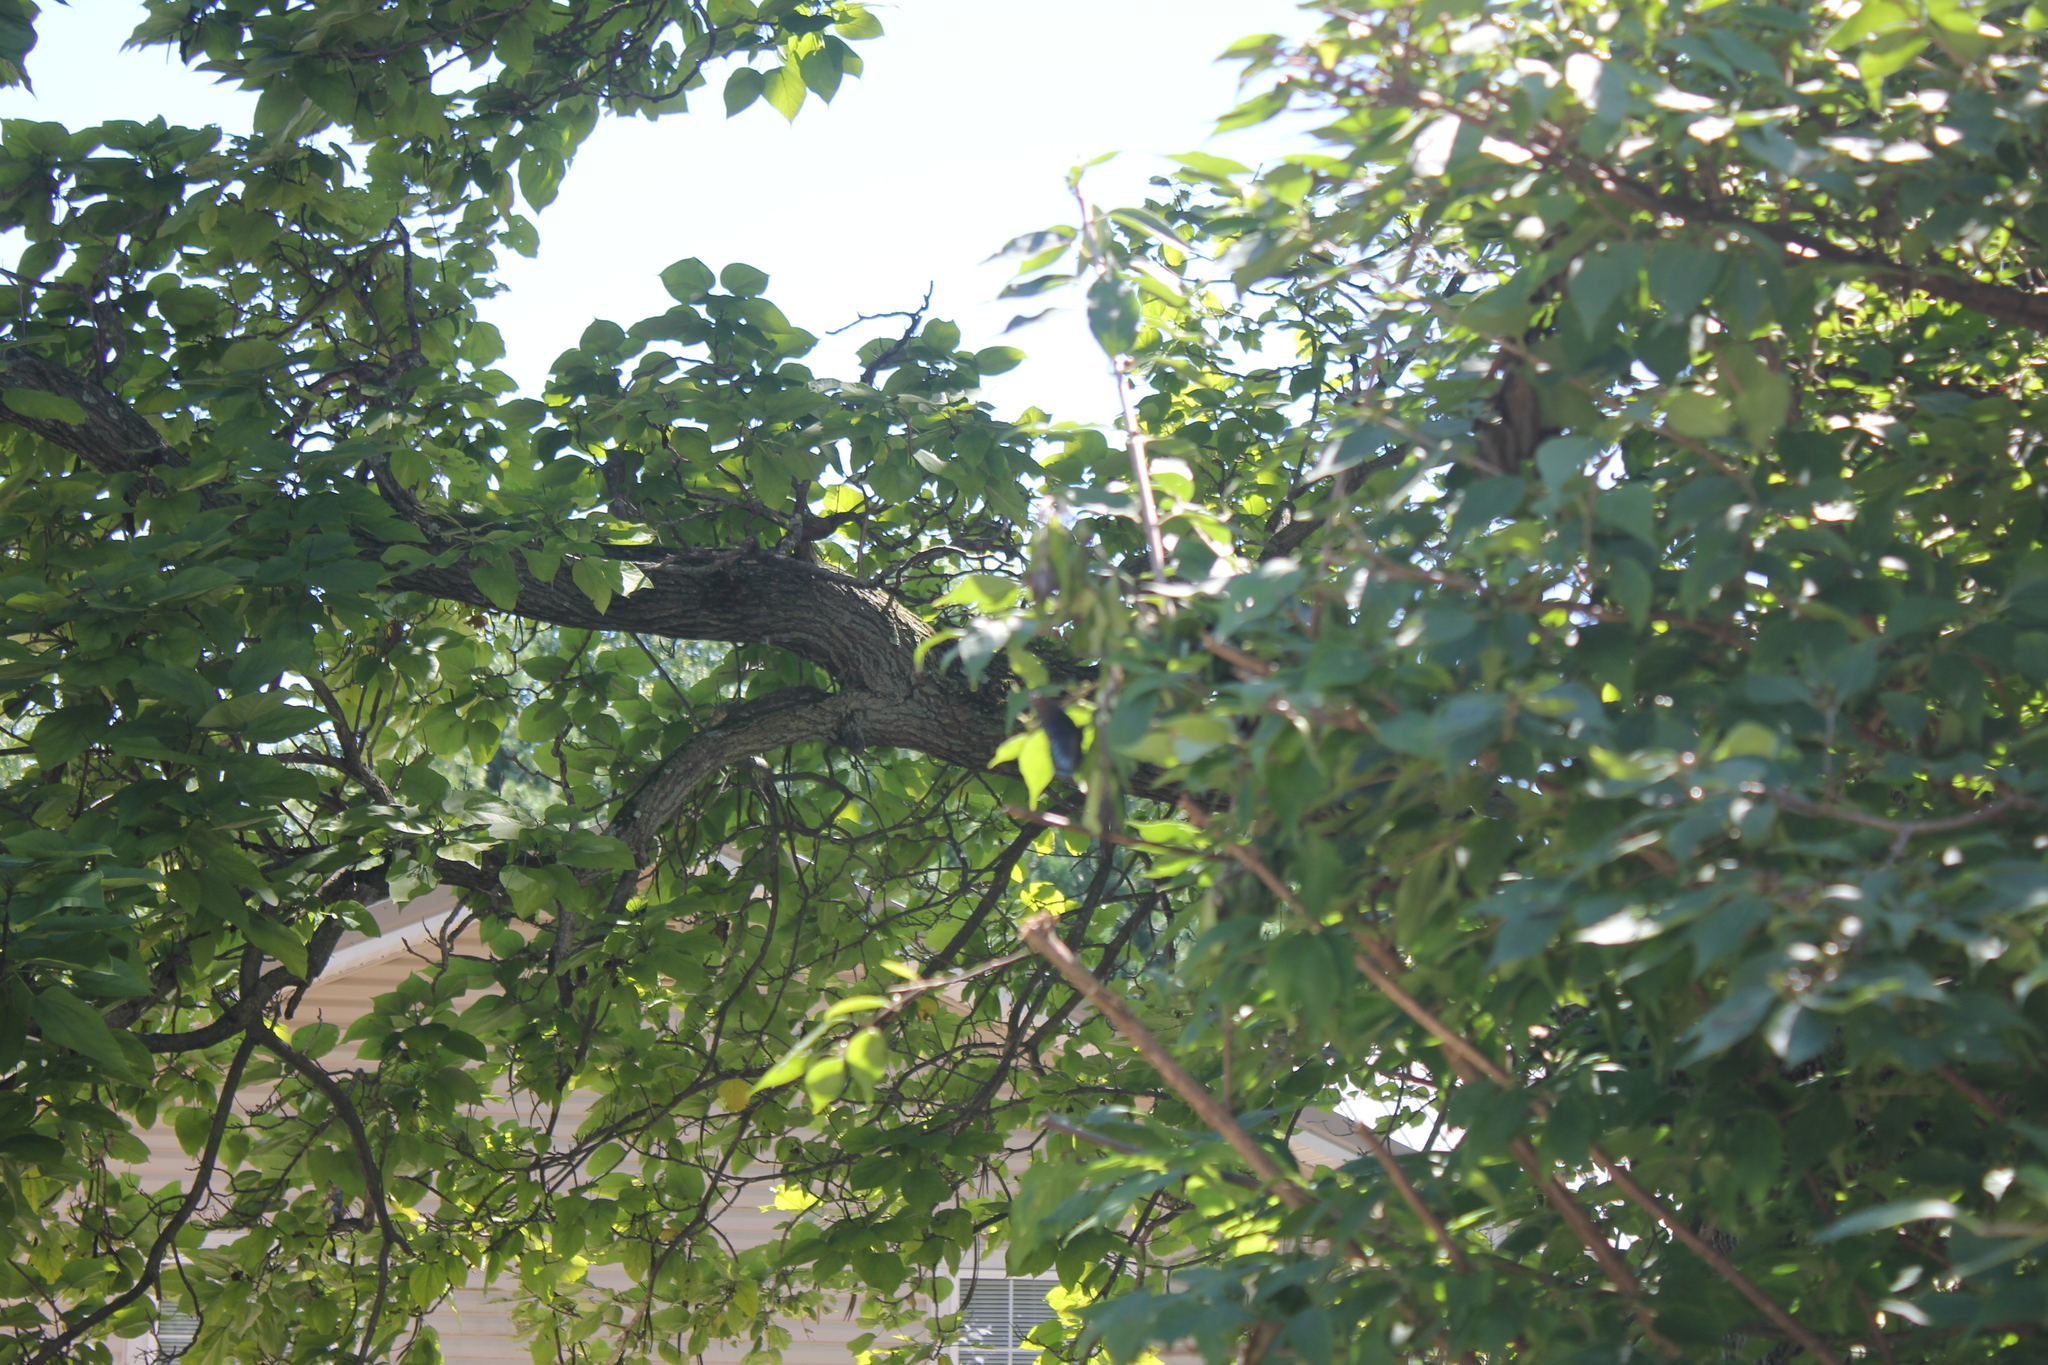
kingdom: Animalia
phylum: Arthropoda
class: Insecta
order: Lepidoptera
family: Nymphalidae
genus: Limenitis
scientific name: Limenitis astyanax
